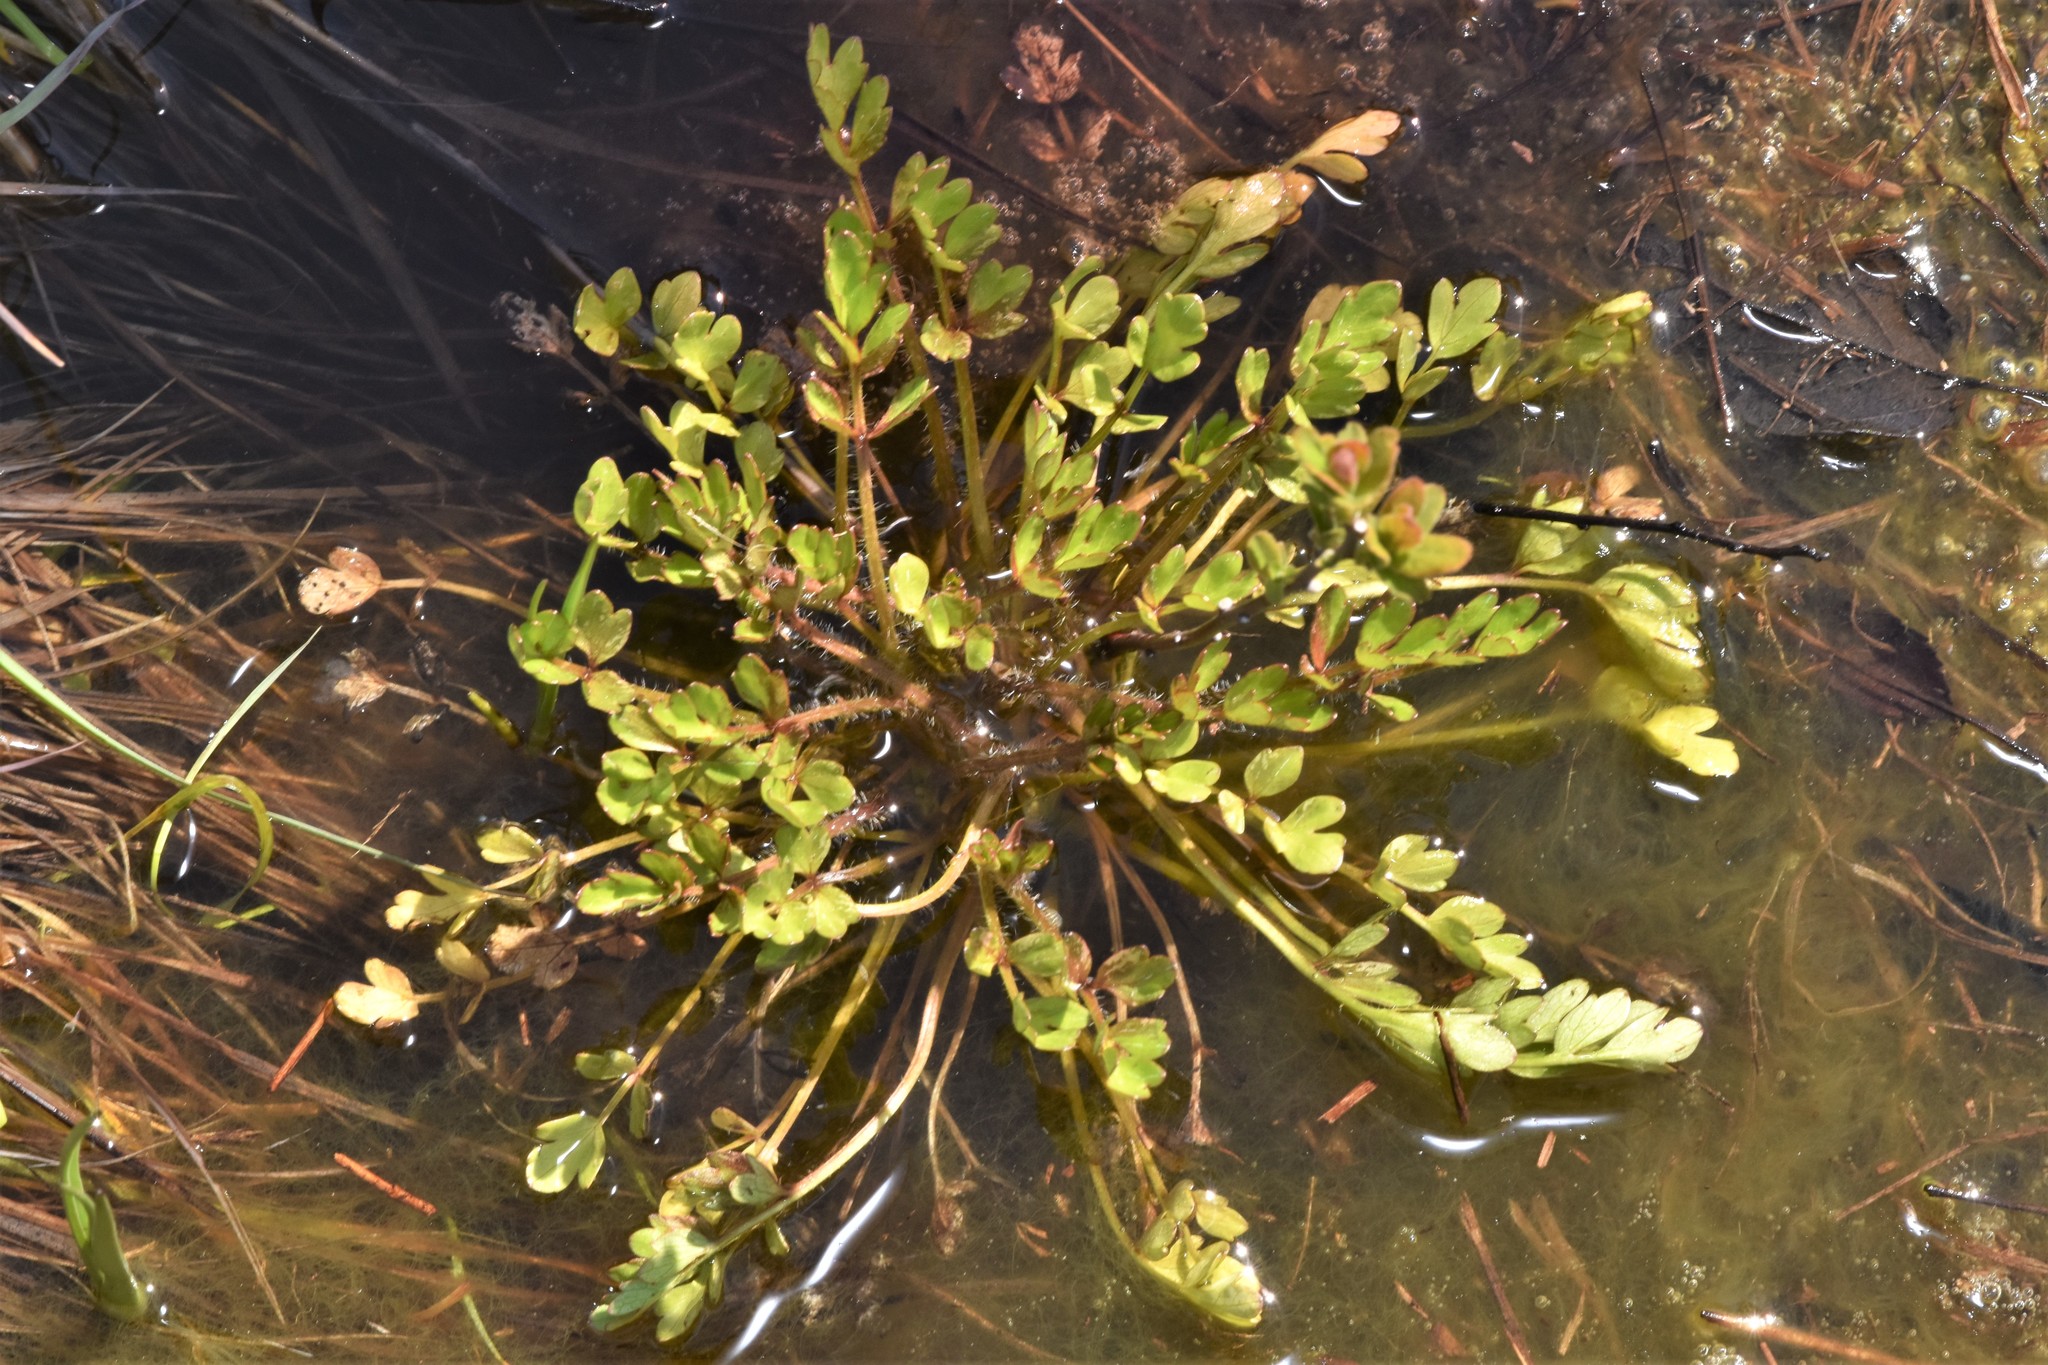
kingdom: Plantae
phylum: Tracheophyta
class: Magnoliopsida
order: Ranunculales
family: Ranunculaceae
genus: Ranunculus
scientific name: Ranunculus orthorhynchus
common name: Straight-beak buttercup
